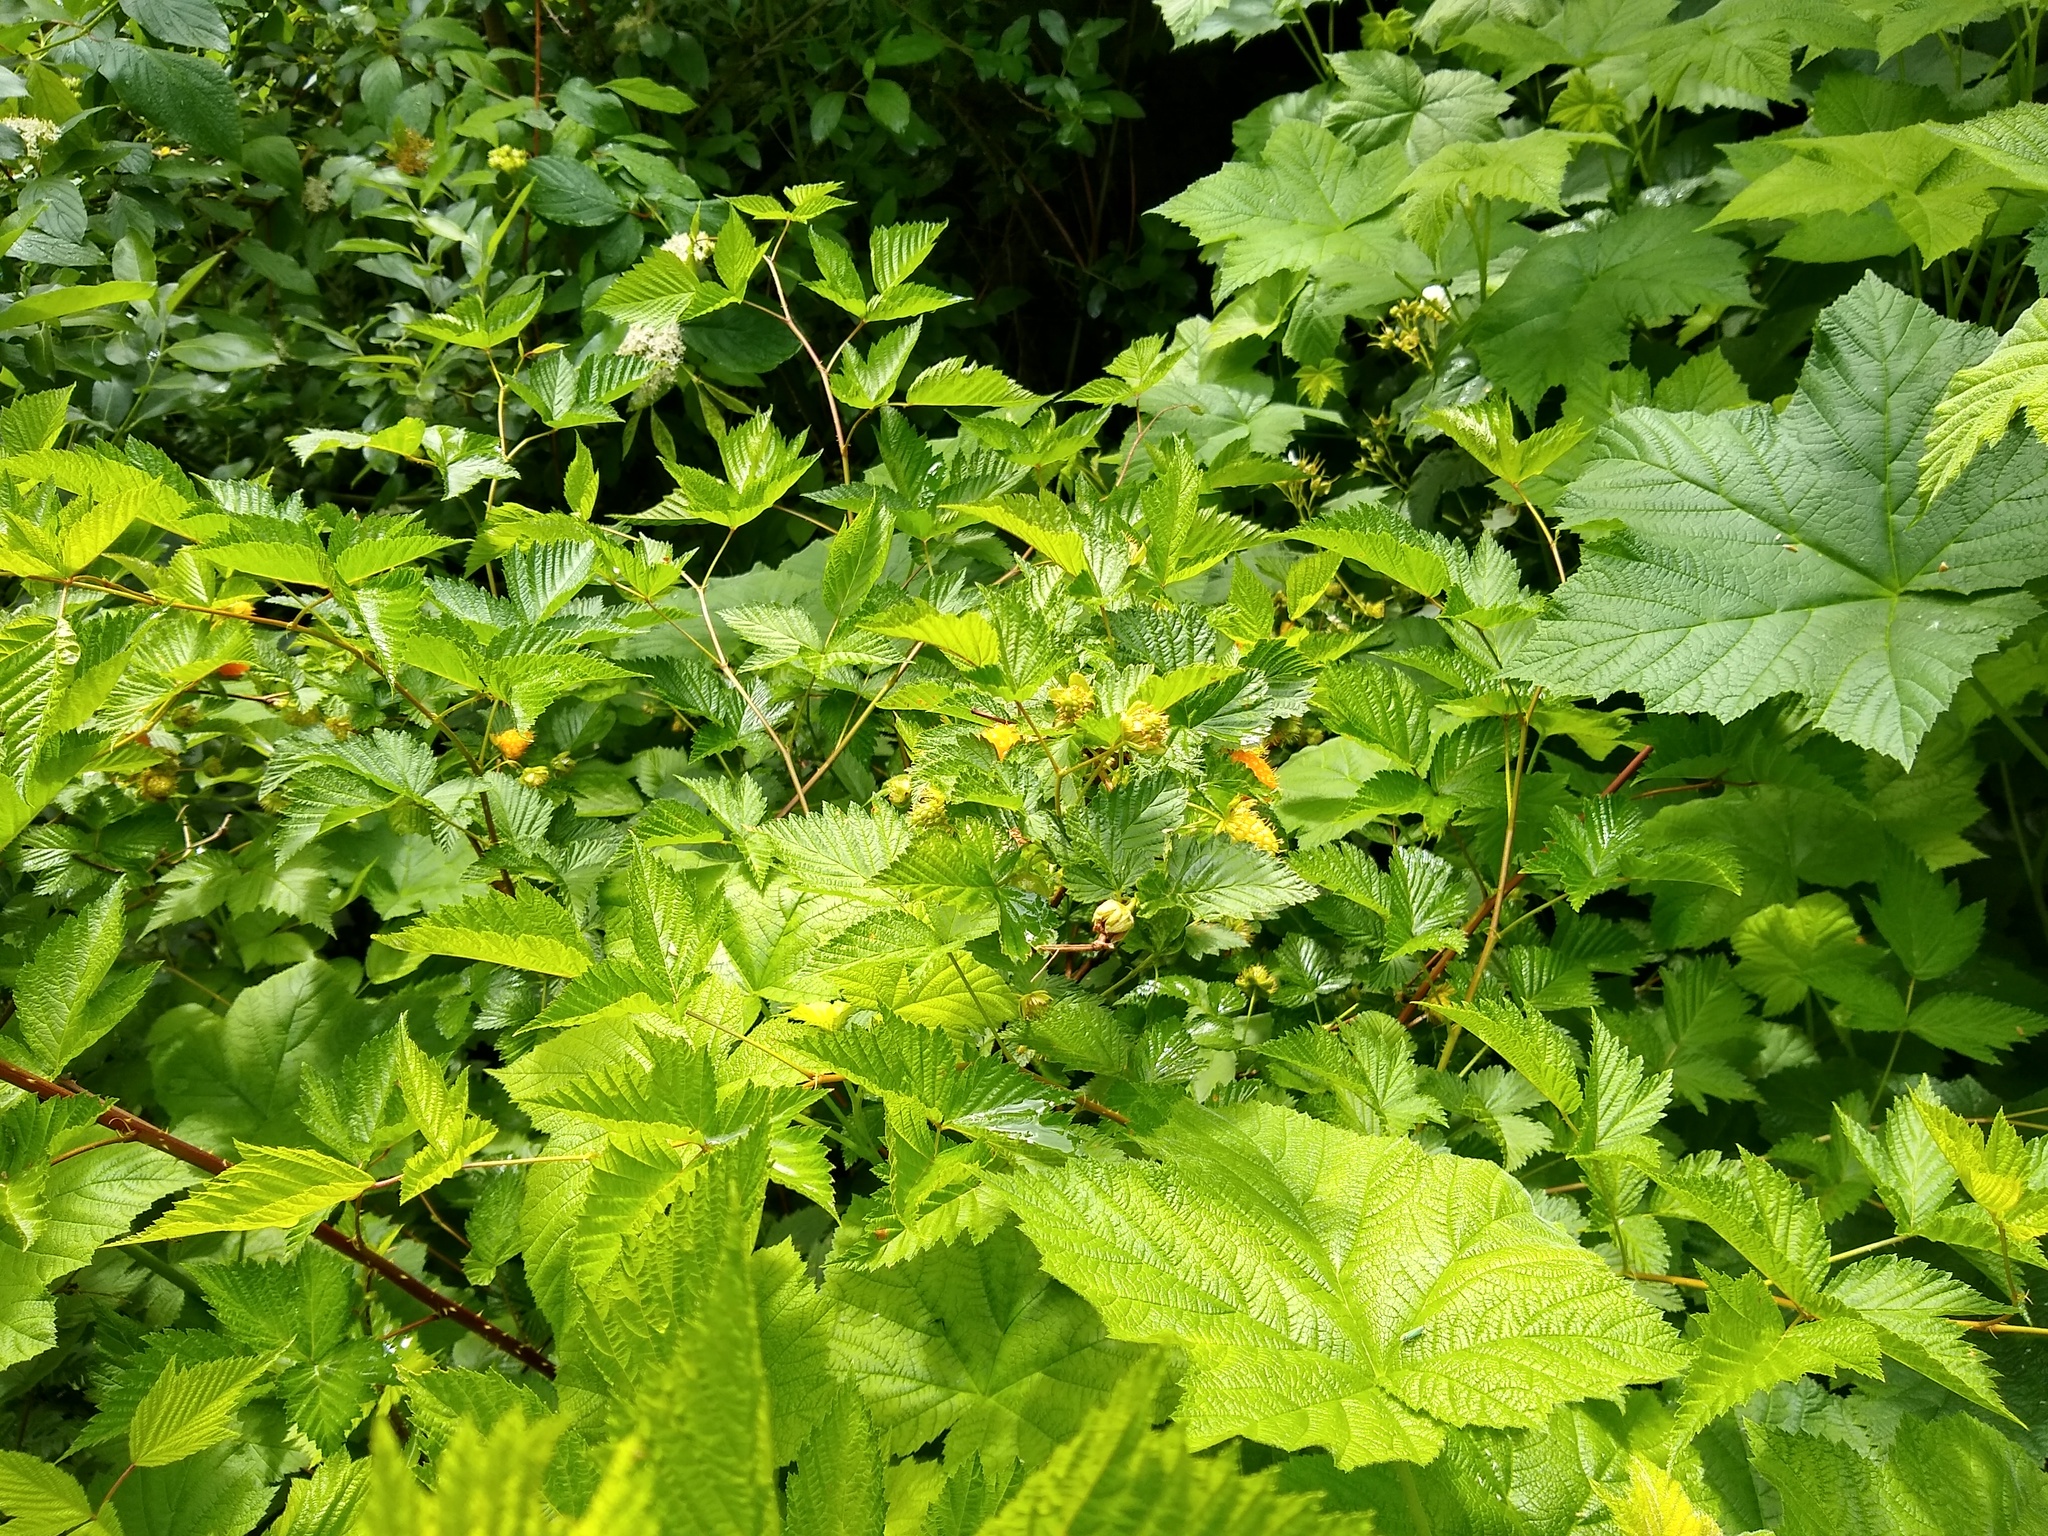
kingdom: Plantae
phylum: Tracheophyta
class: Magnoliopsida
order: Rosales
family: Rosaceae
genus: Rubus
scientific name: Rubus spectabilis
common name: Salmonberry
